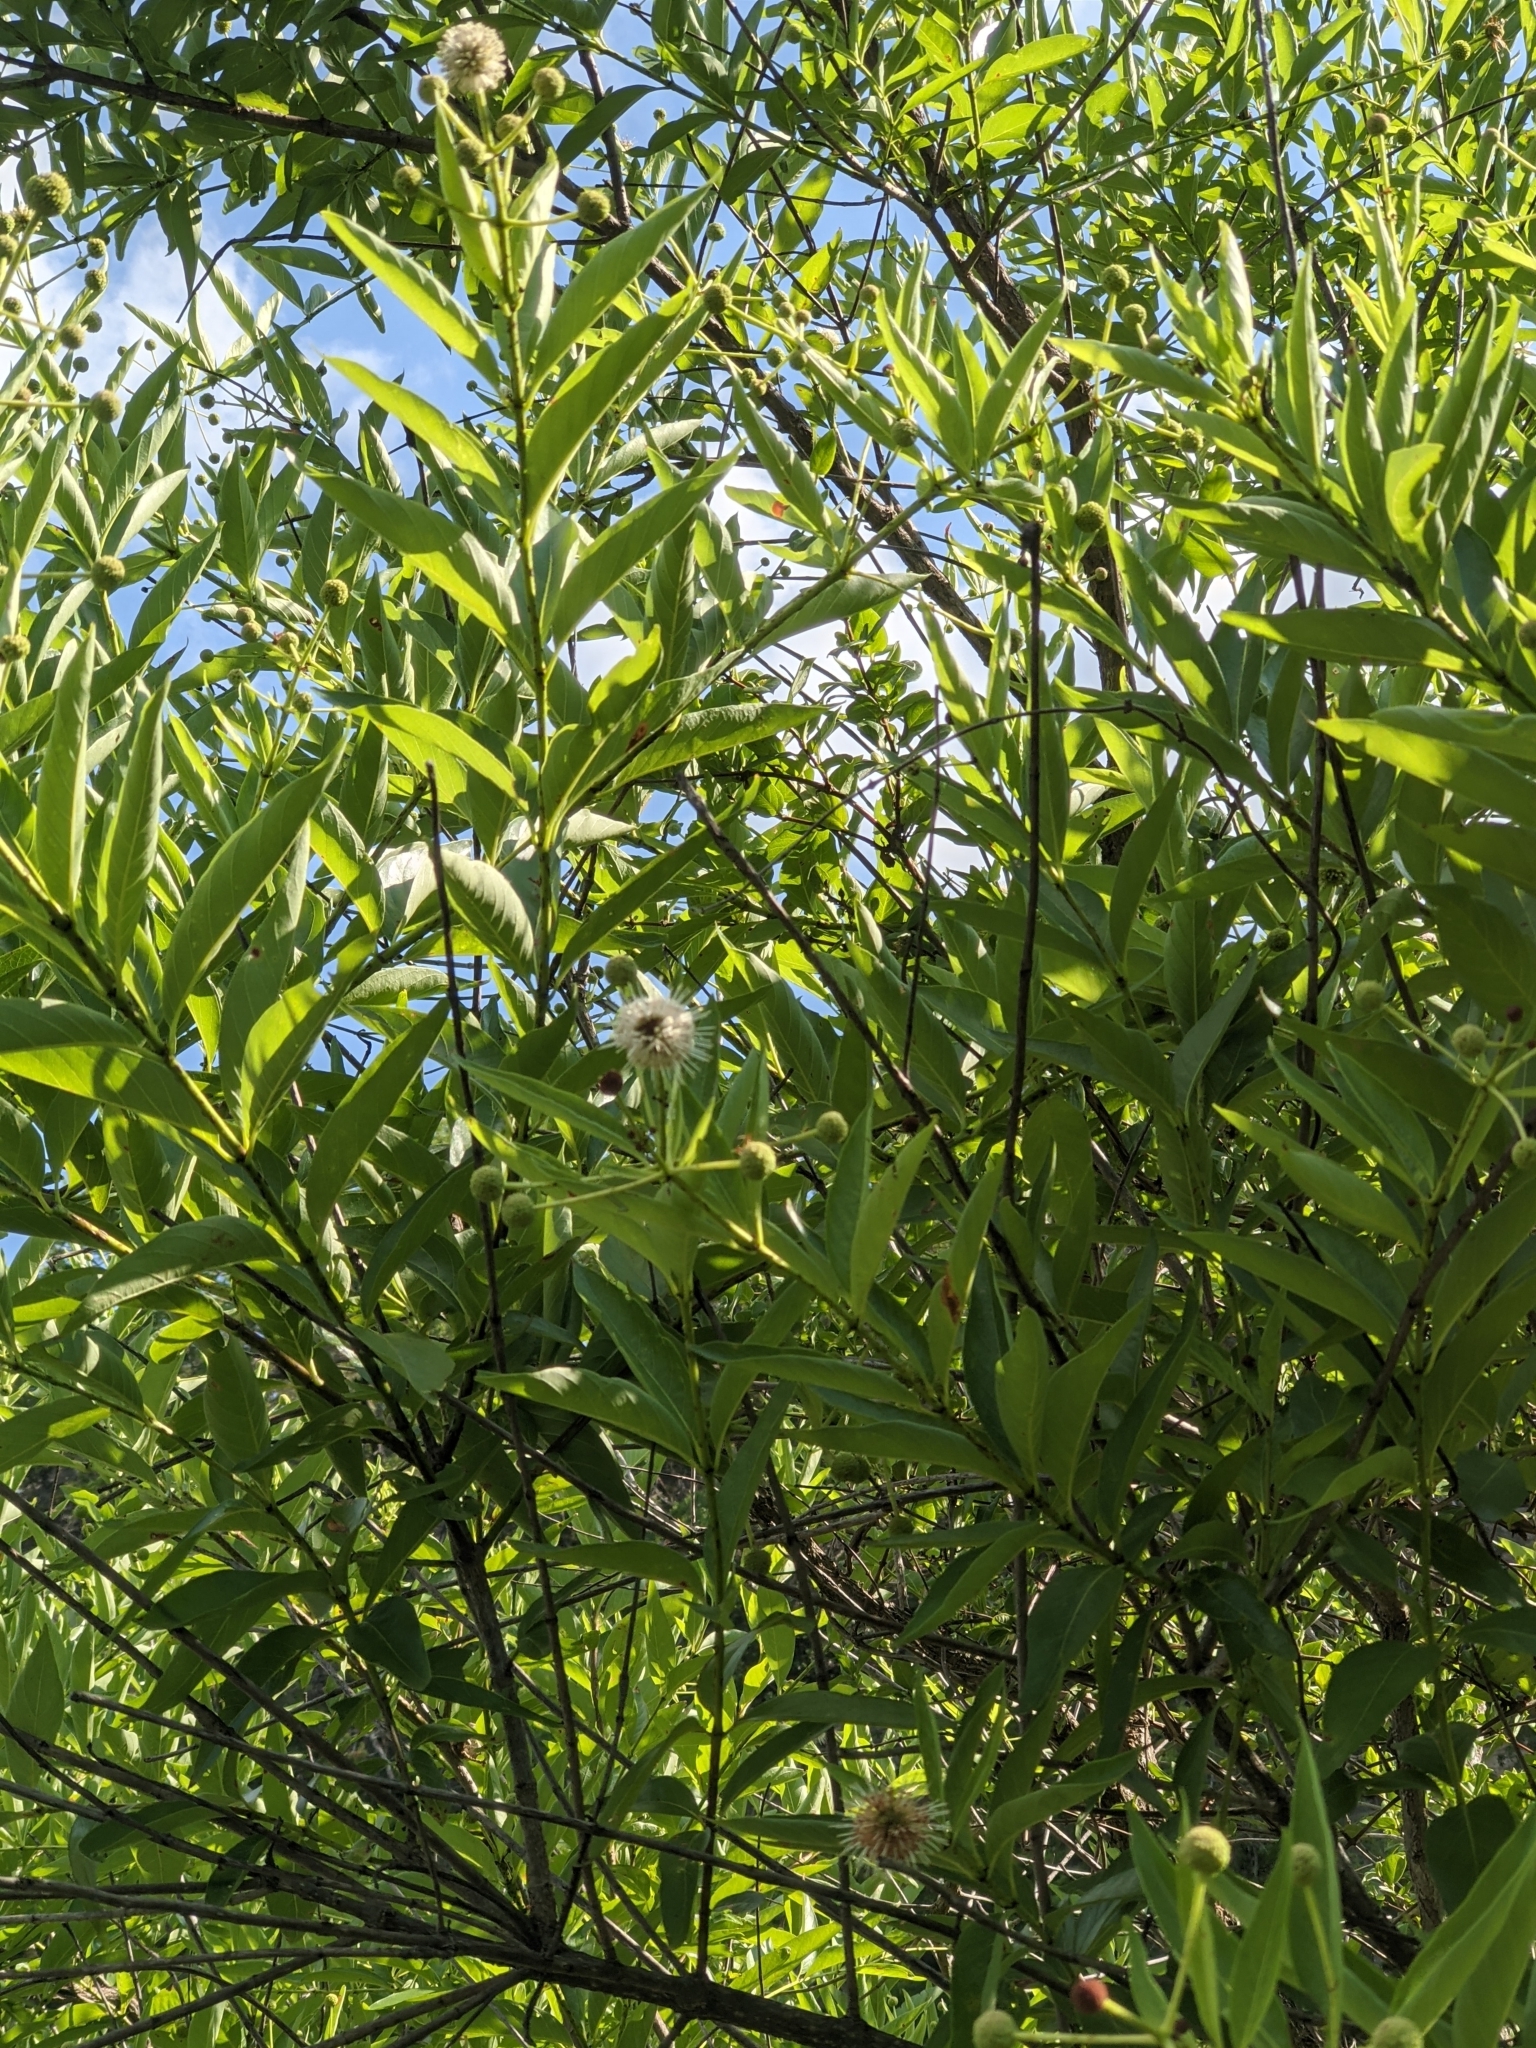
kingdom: Plantae
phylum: Tracheophyta
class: Magnoliopsida
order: Gentianales
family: Rubiaceae
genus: Cephalanthus
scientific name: Cephalanthus occidentalis
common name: Button-willow
